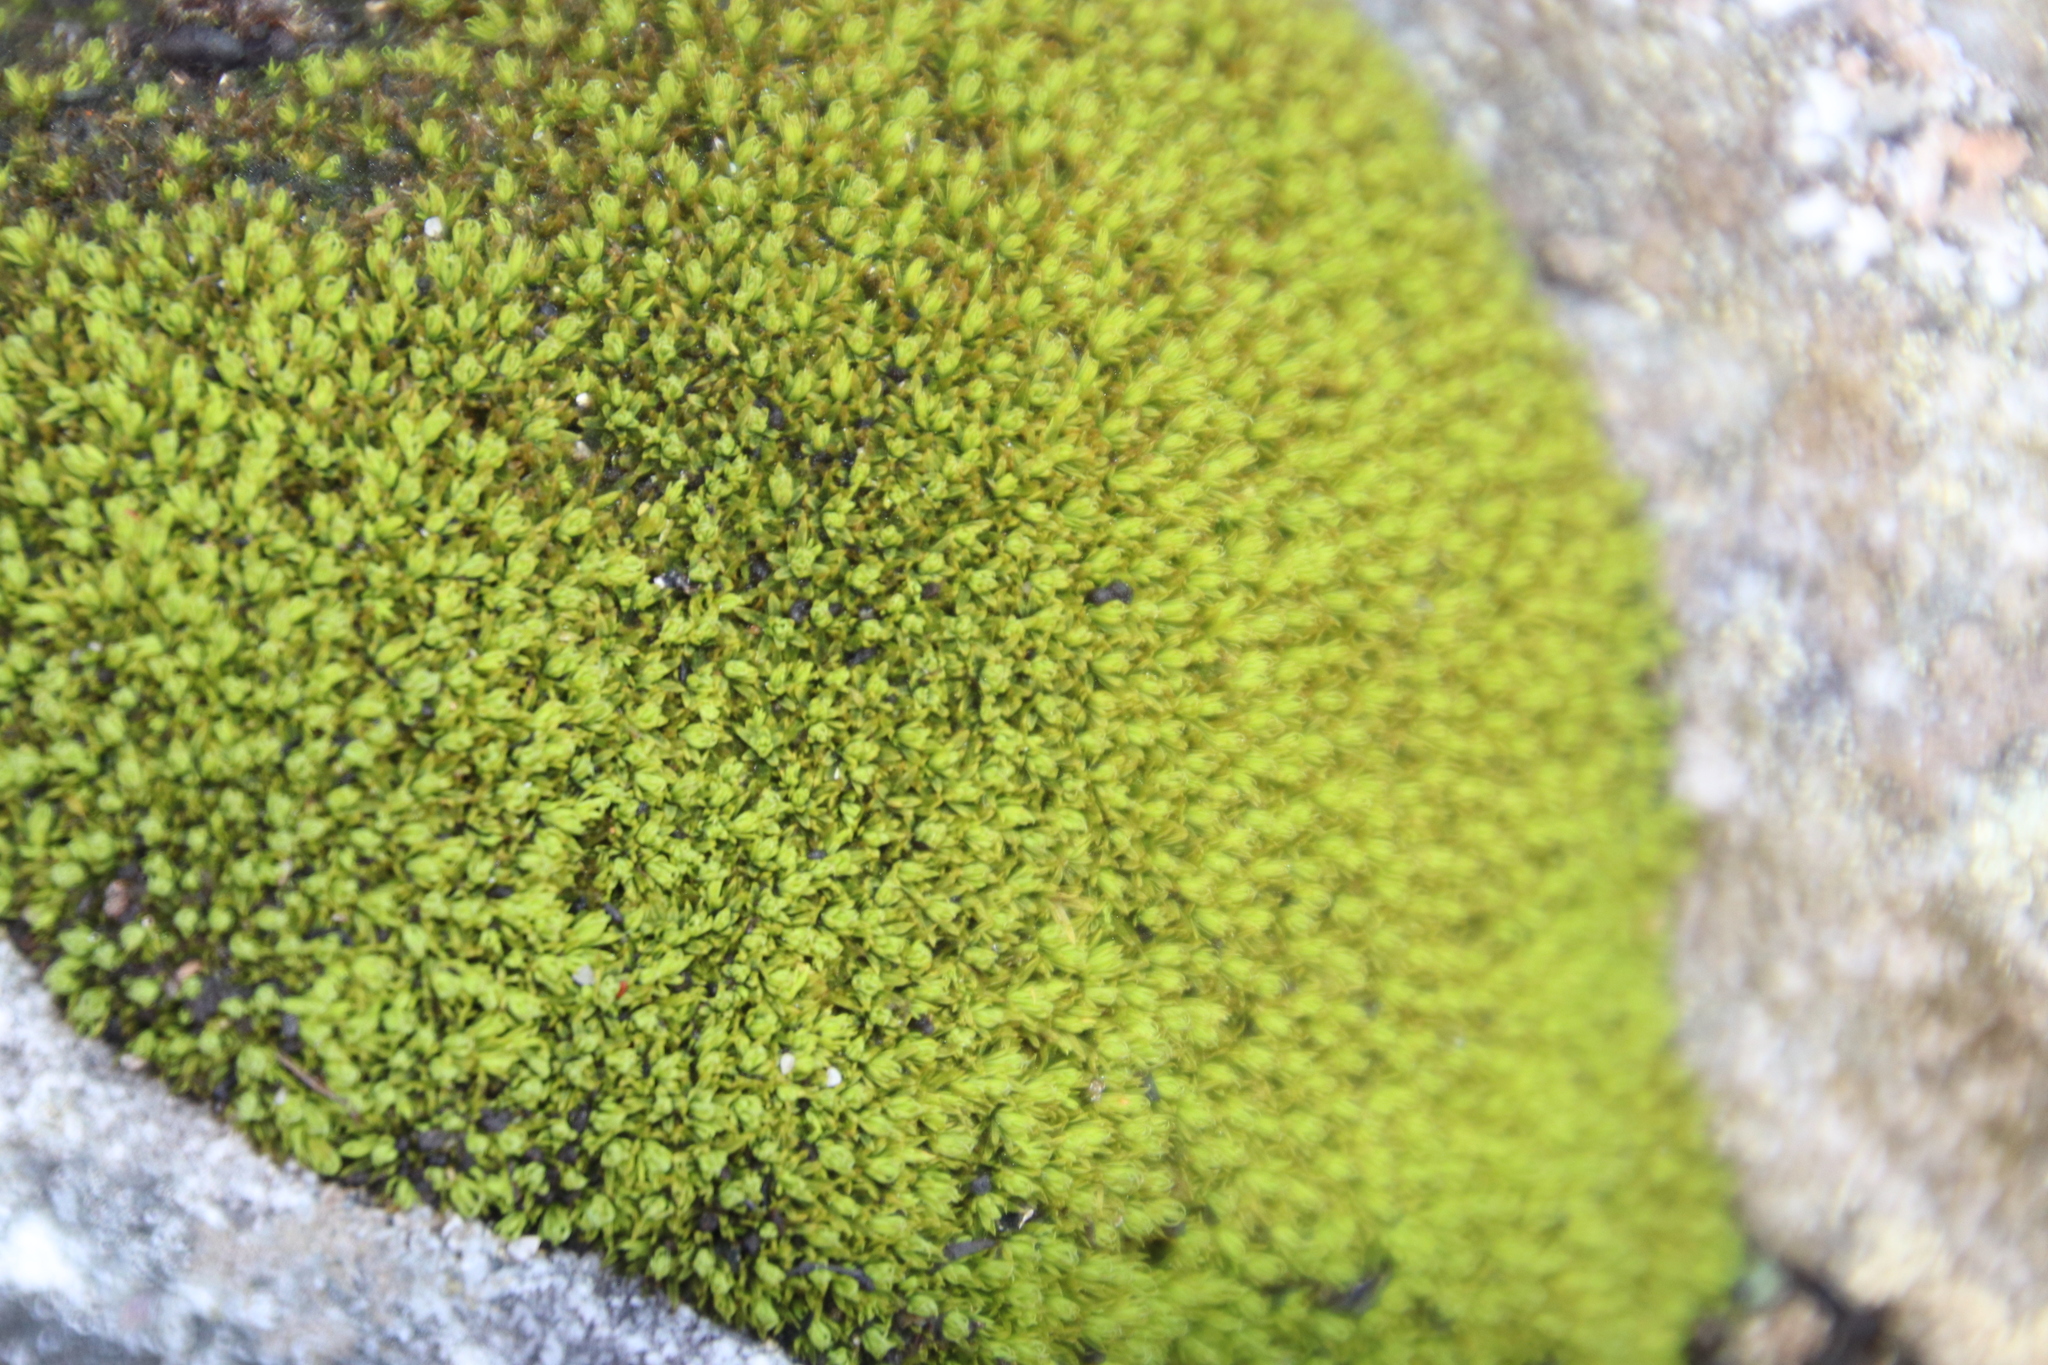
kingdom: Plantae
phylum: Bryophyta
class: Bryopsida
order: Dicranales
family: Hypodontiaceae
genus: Hypodontium
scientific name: Hypodontium pomiforme
